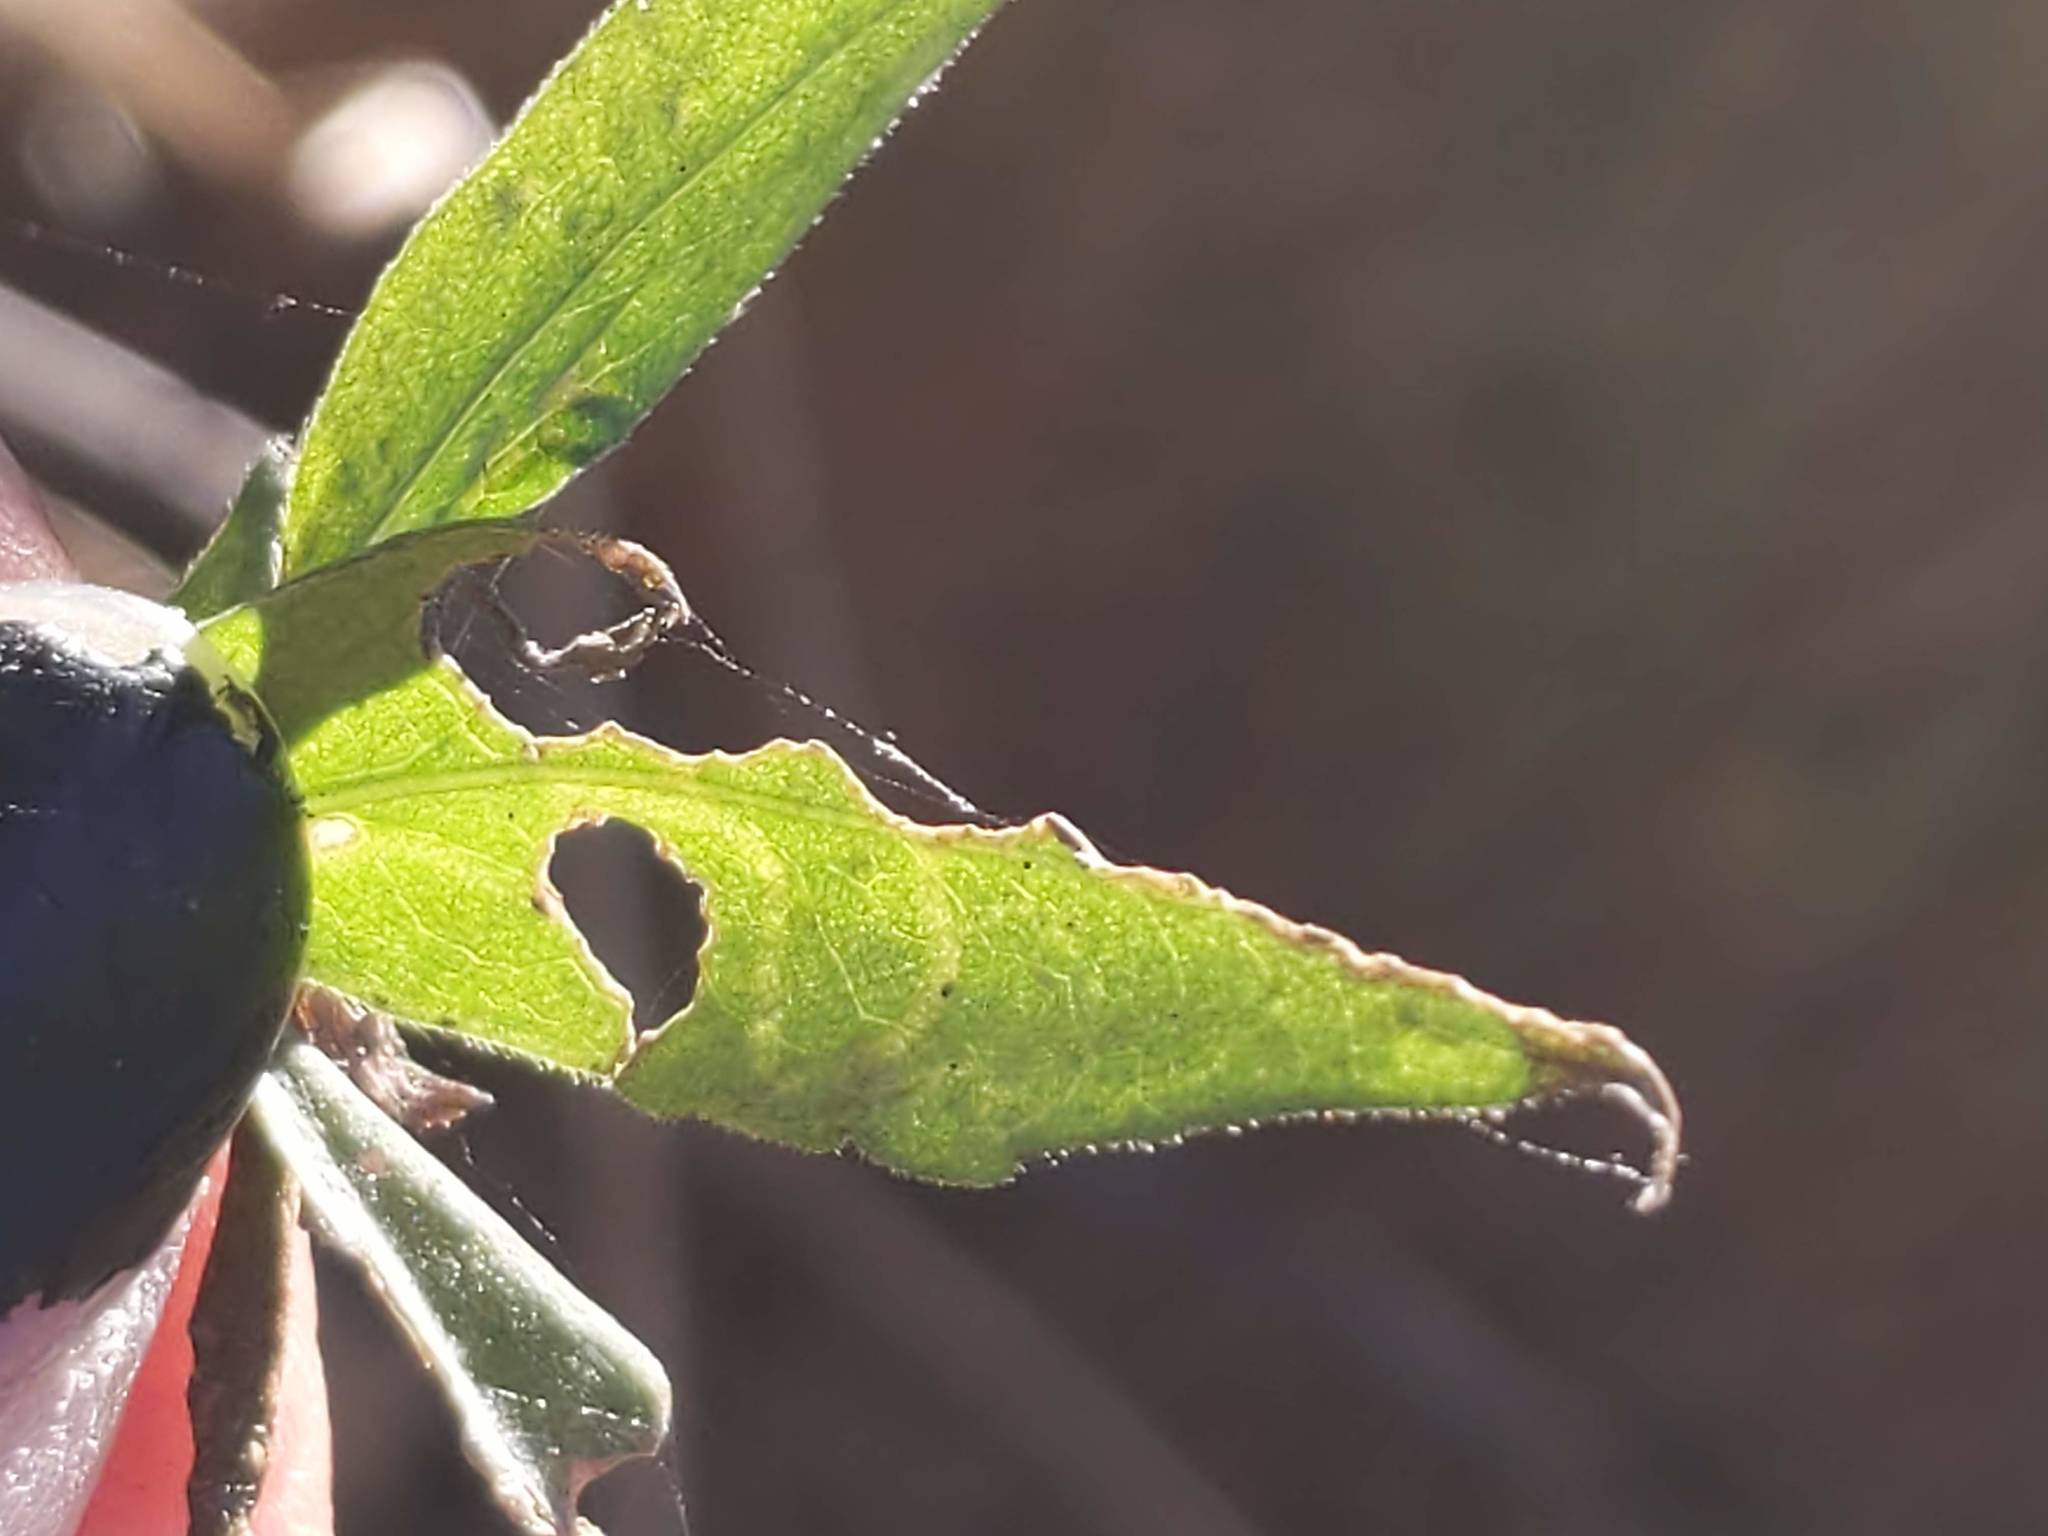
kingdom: Animalia
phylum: Arthropoda
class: Insecta
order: Diptera
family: Agromyzidae
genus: Ophiomyia
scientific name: Ophiomyia parda
